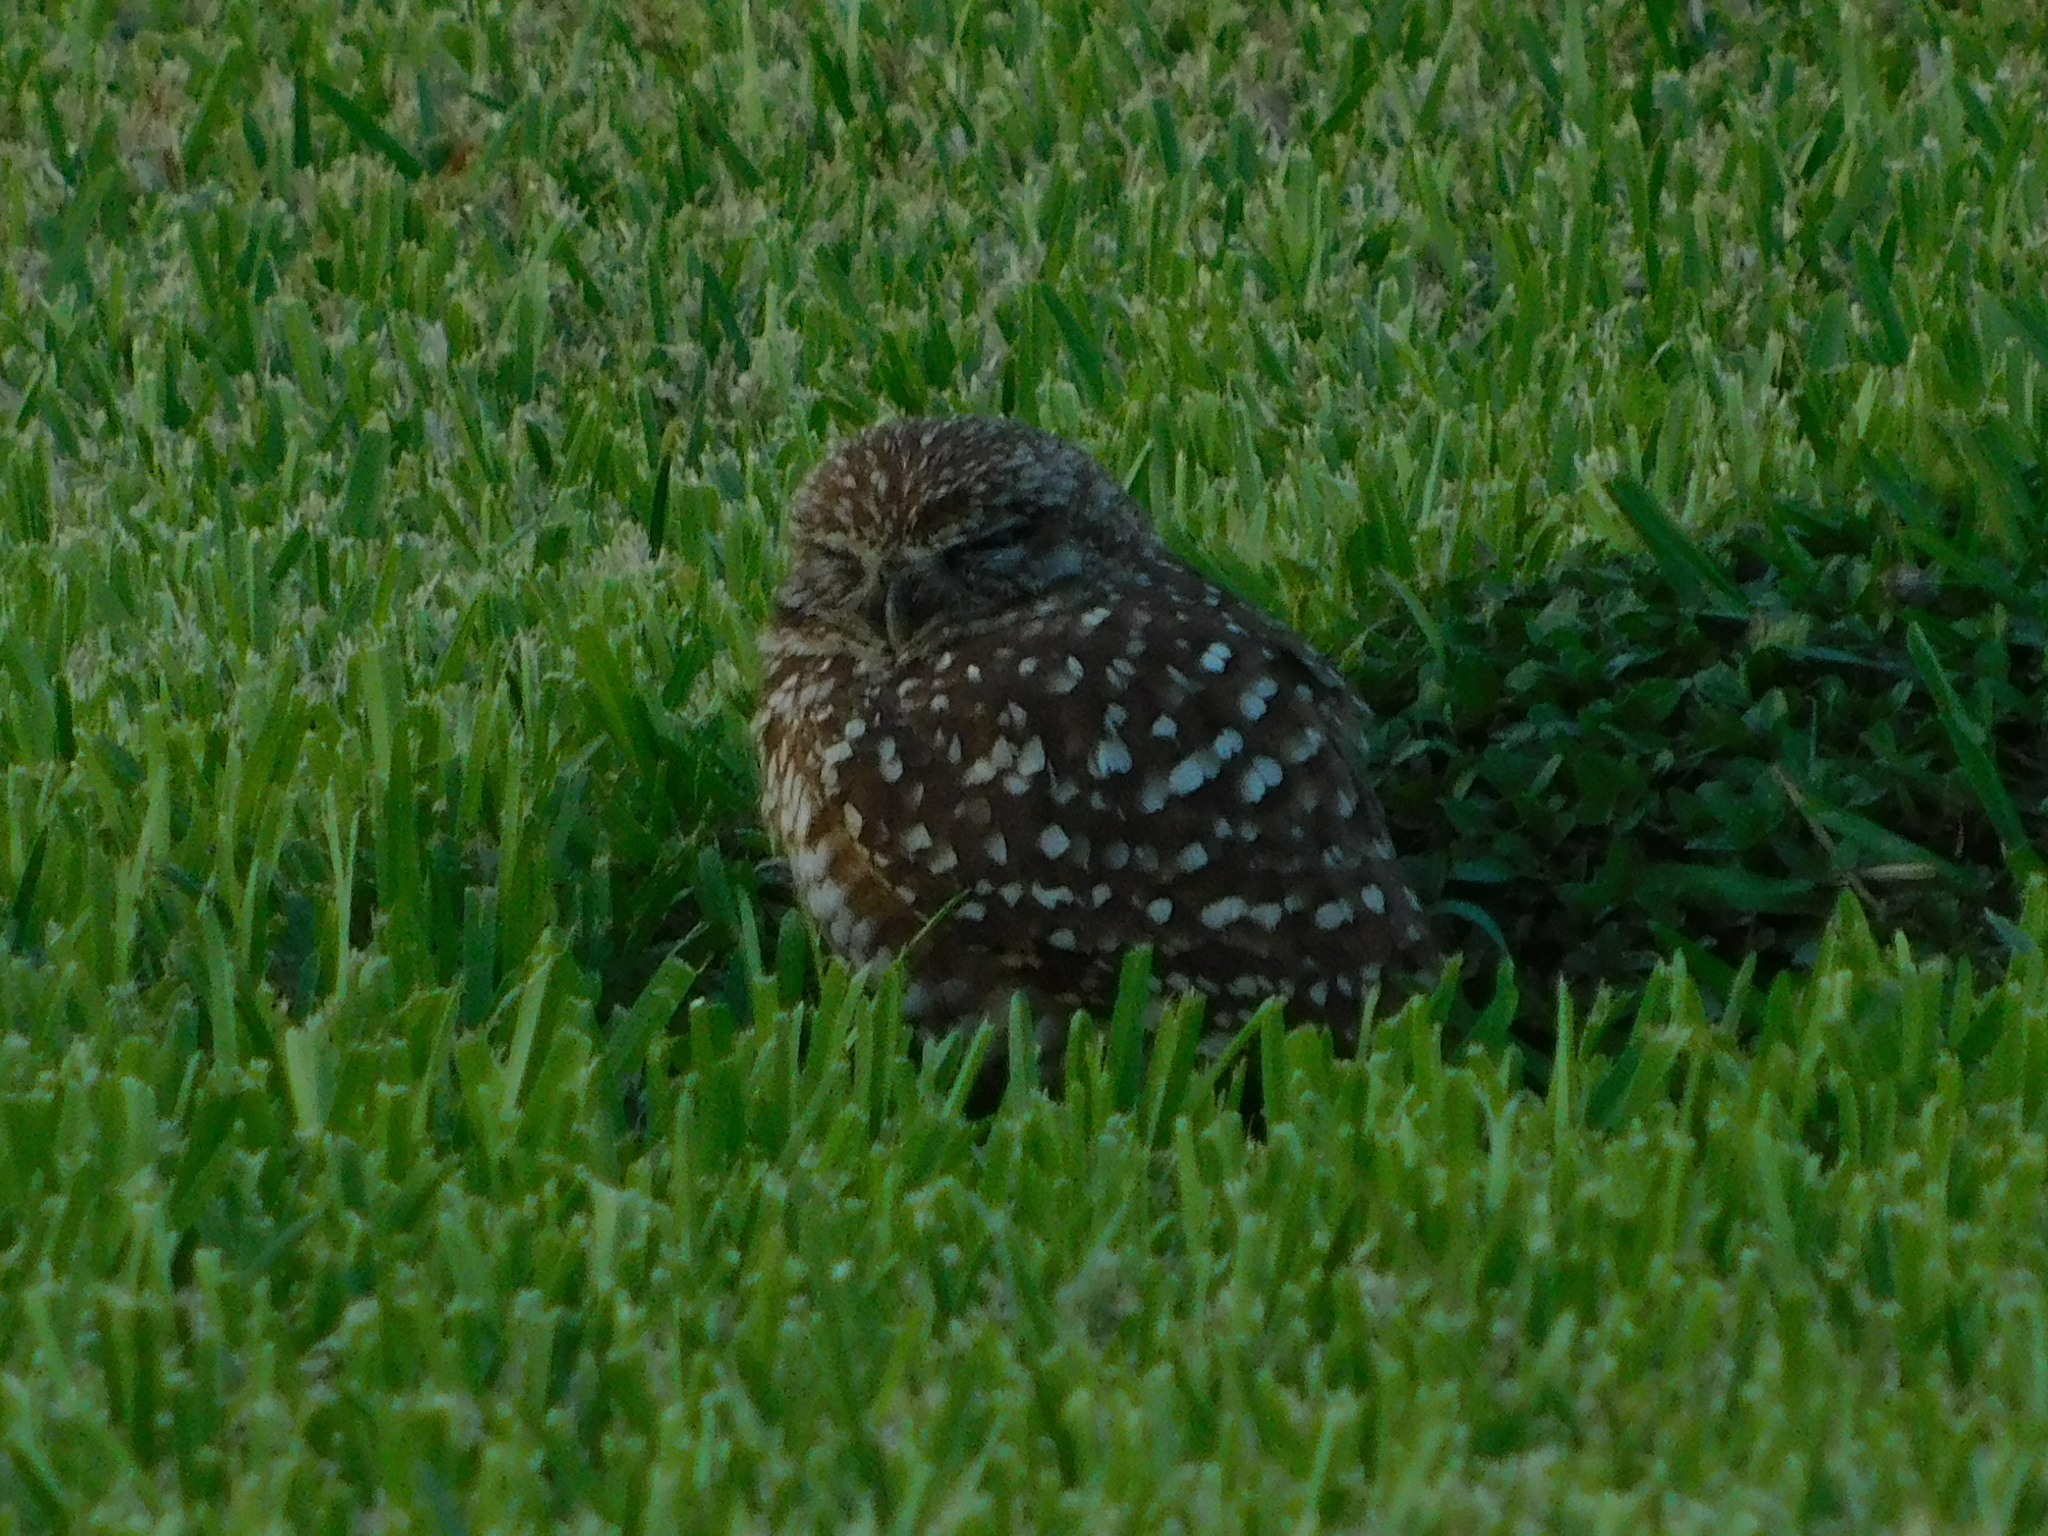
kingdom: Animalia
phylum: Chordata
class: Aves
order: Strigiformes
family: Strigidae
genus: Athene
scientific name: Athene cunicularia
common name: Burrowing owl
